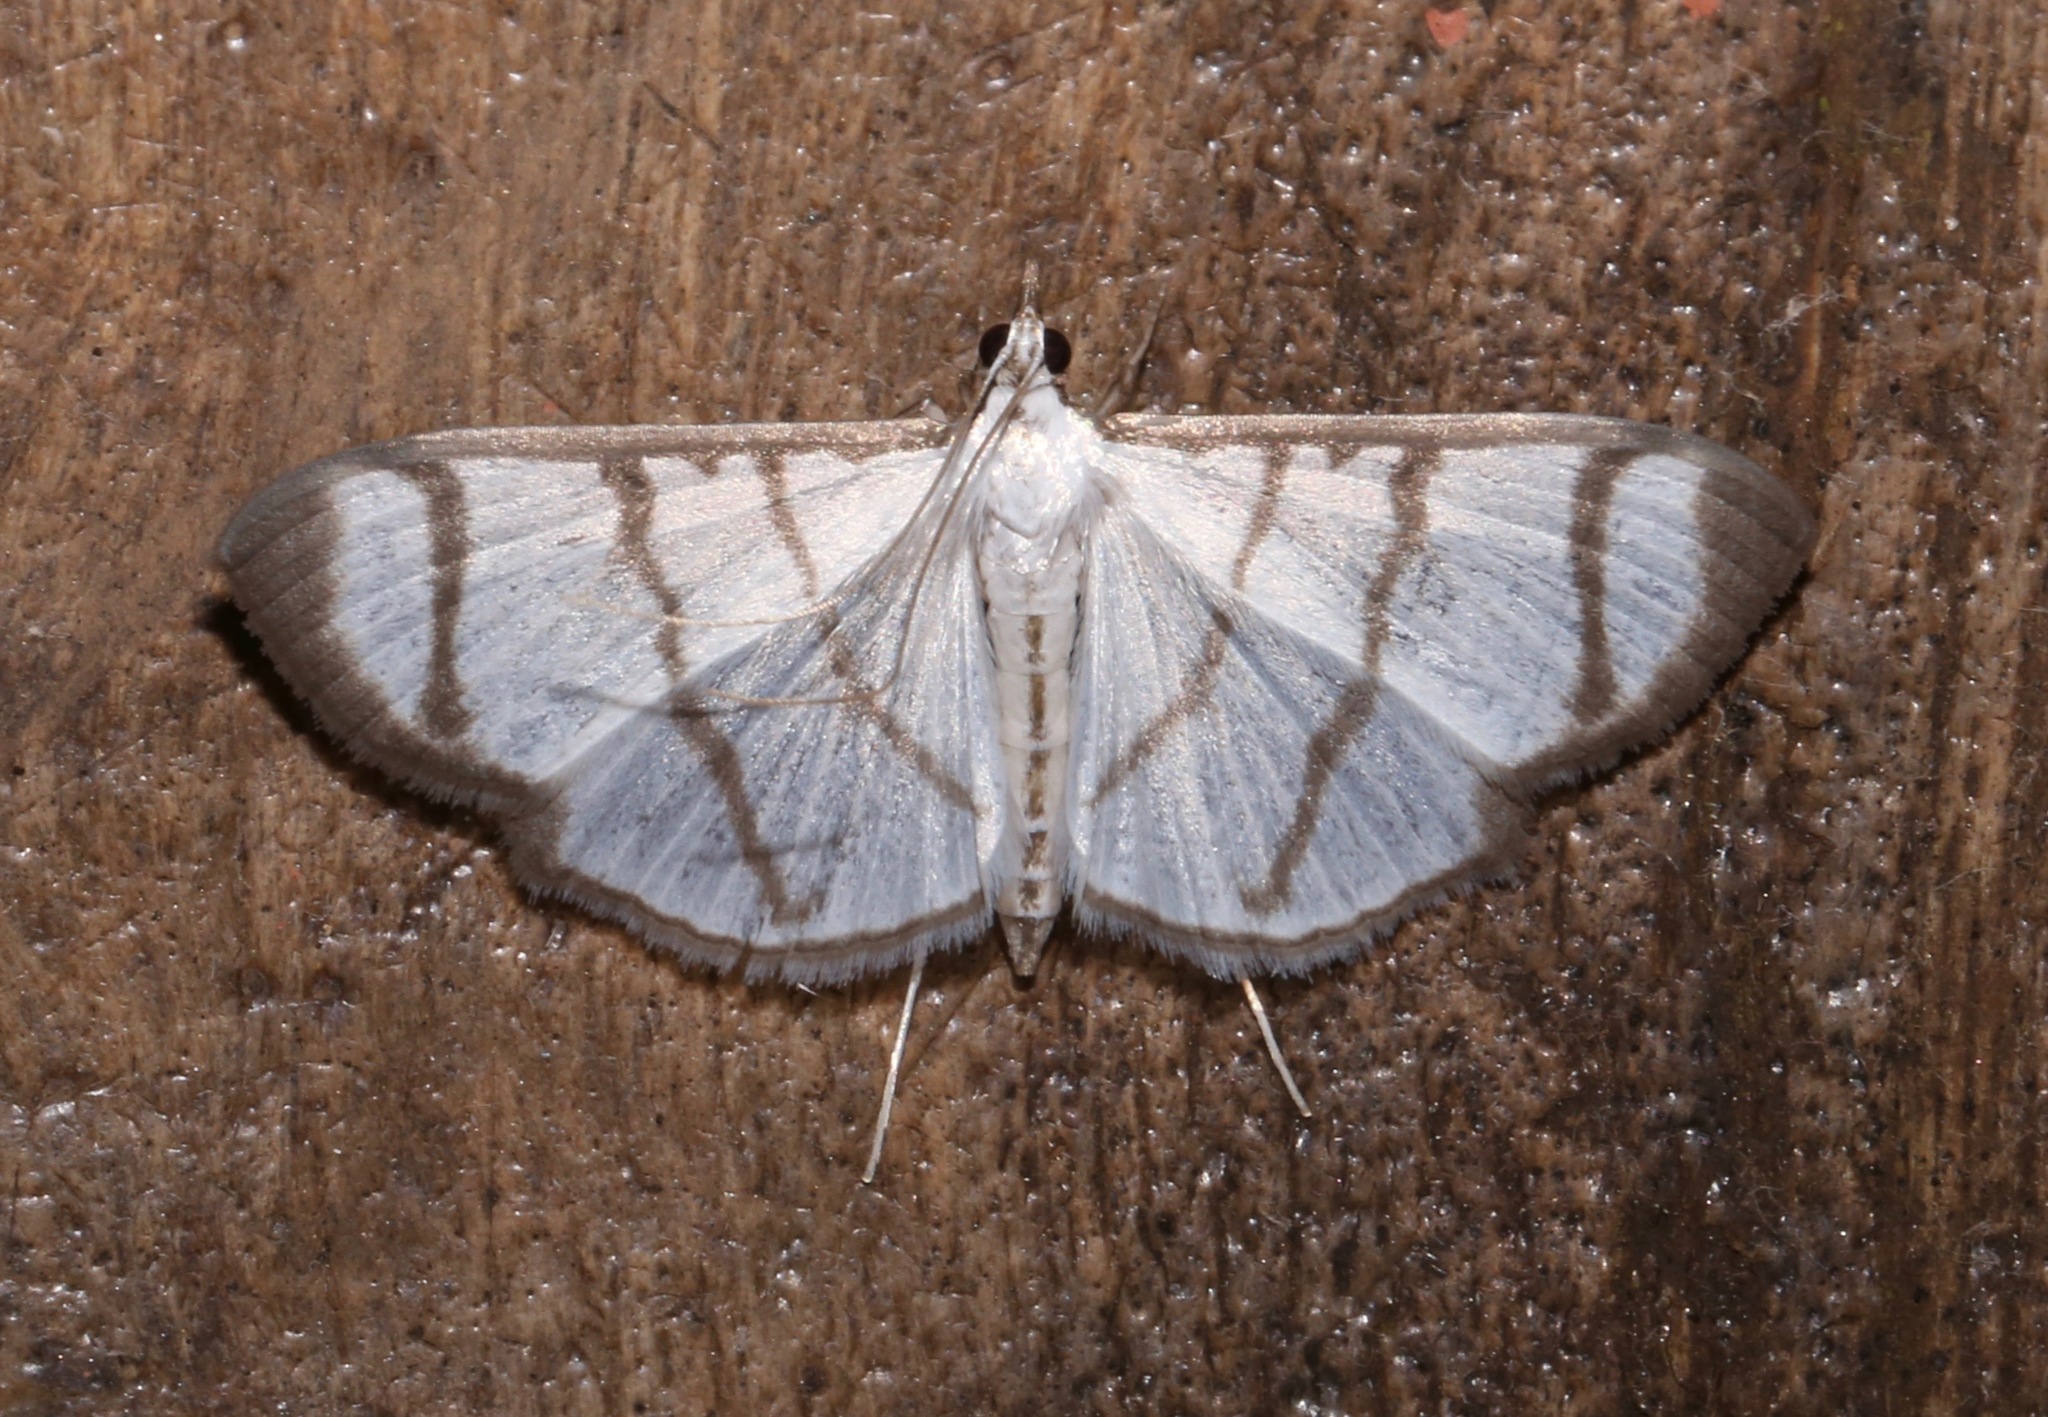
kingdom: Animalia
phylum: Arthropoda
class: Insecta
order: Lepidoptera
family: Crambidae
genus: Zebronia
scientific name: Zebronia phenice
